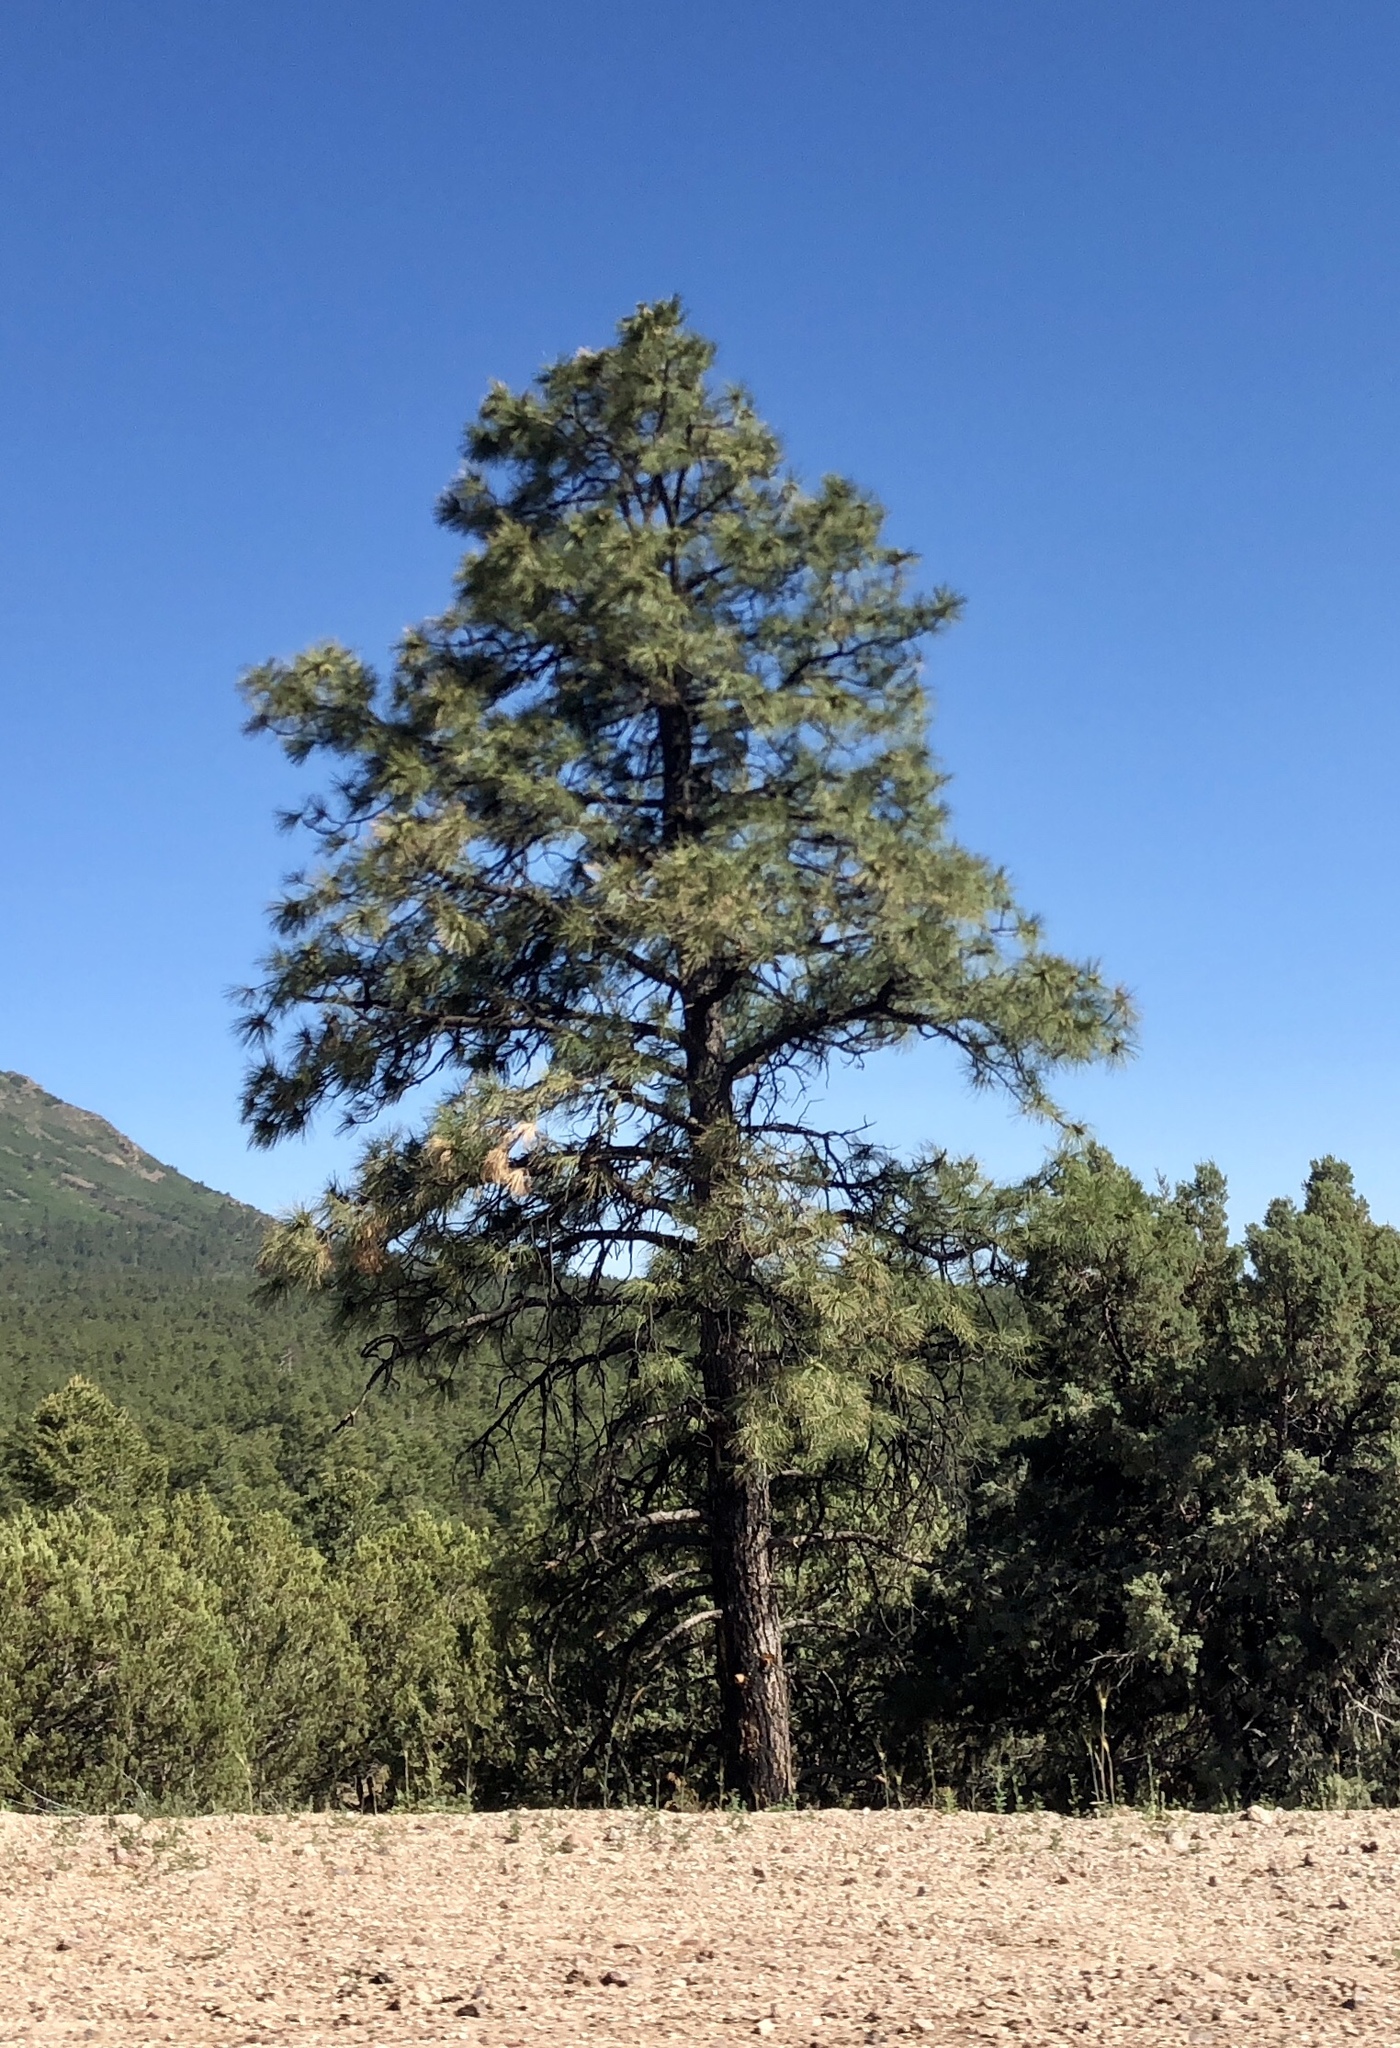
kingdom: Plantae
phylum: Tracheophyta
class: Pinopsida
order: Pinales
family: Pinaceae
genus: Pinus
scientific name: Pinus ponderosa
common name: Western yellow-pine
